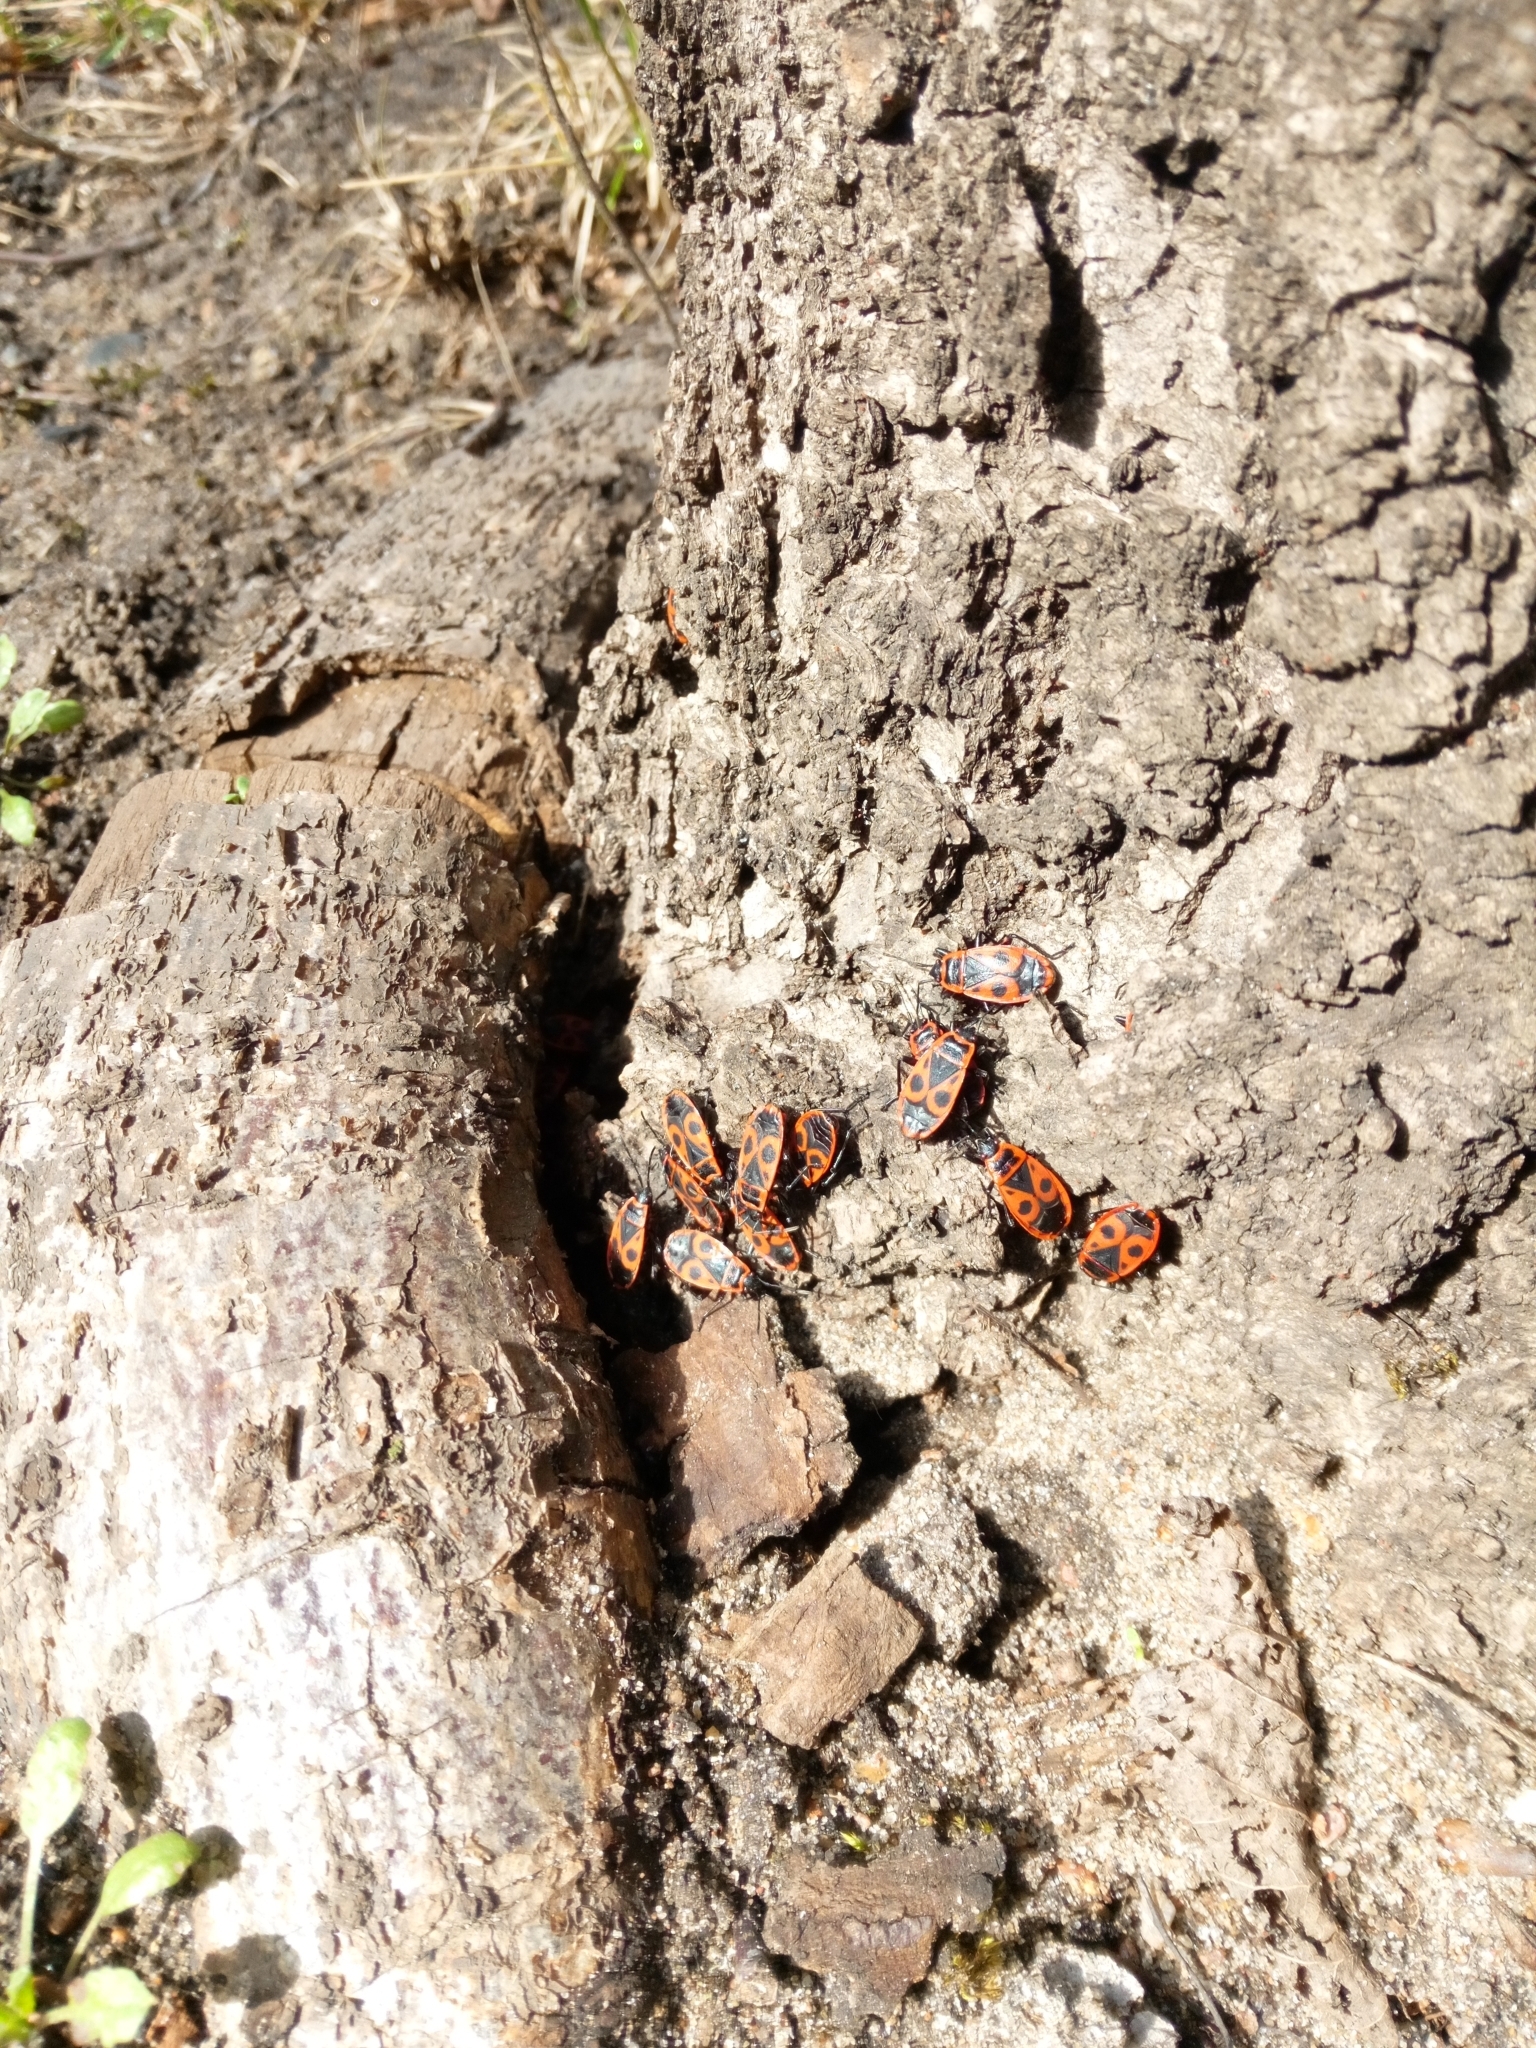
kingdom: Animalia
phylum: Arthropoda
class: Insecta
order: Hemiptera
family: Pyrrhocoridae
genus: Pyrrhocoris
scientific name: Pyrrhocoris apterus
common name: Firebug
